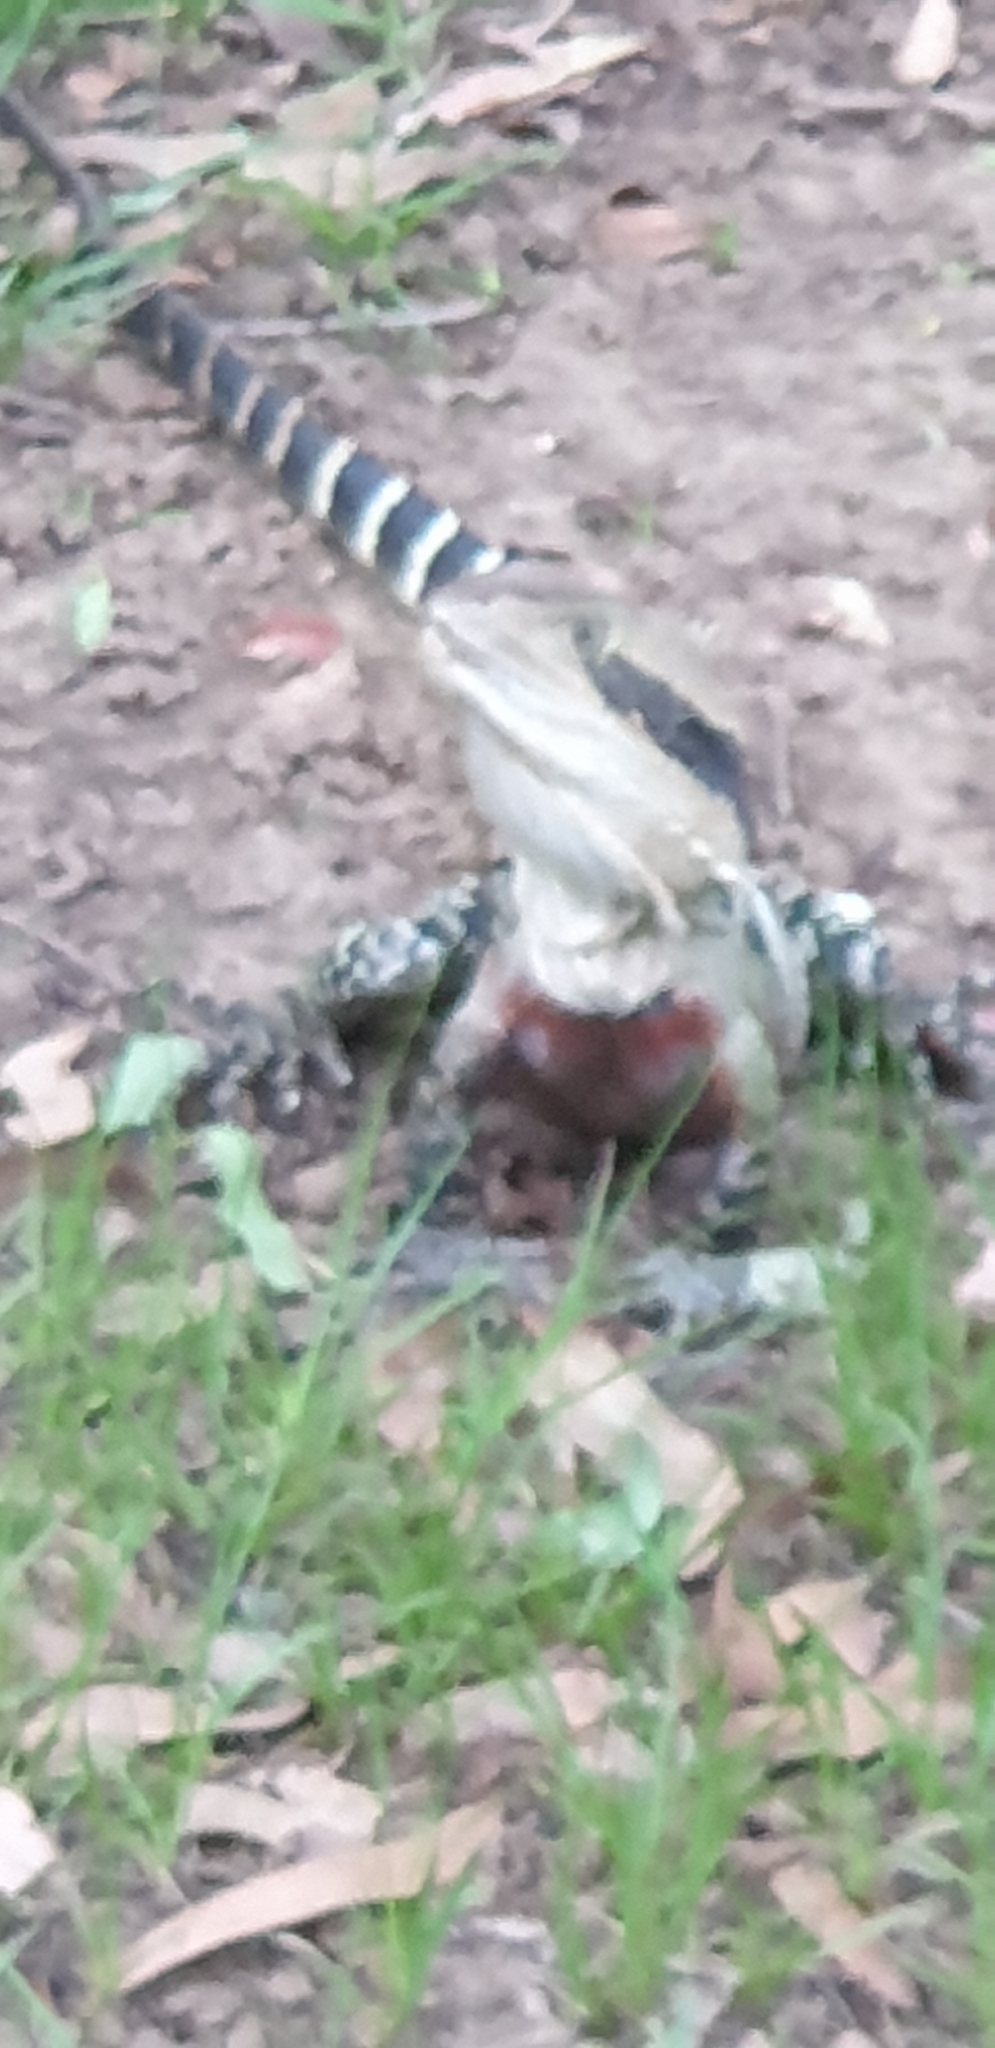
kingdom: Animalia
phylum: Chordata
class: Squamata
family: Agamidae
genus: Intellagama
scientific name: Intellagama lesueurii
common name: Eastern water dragon
